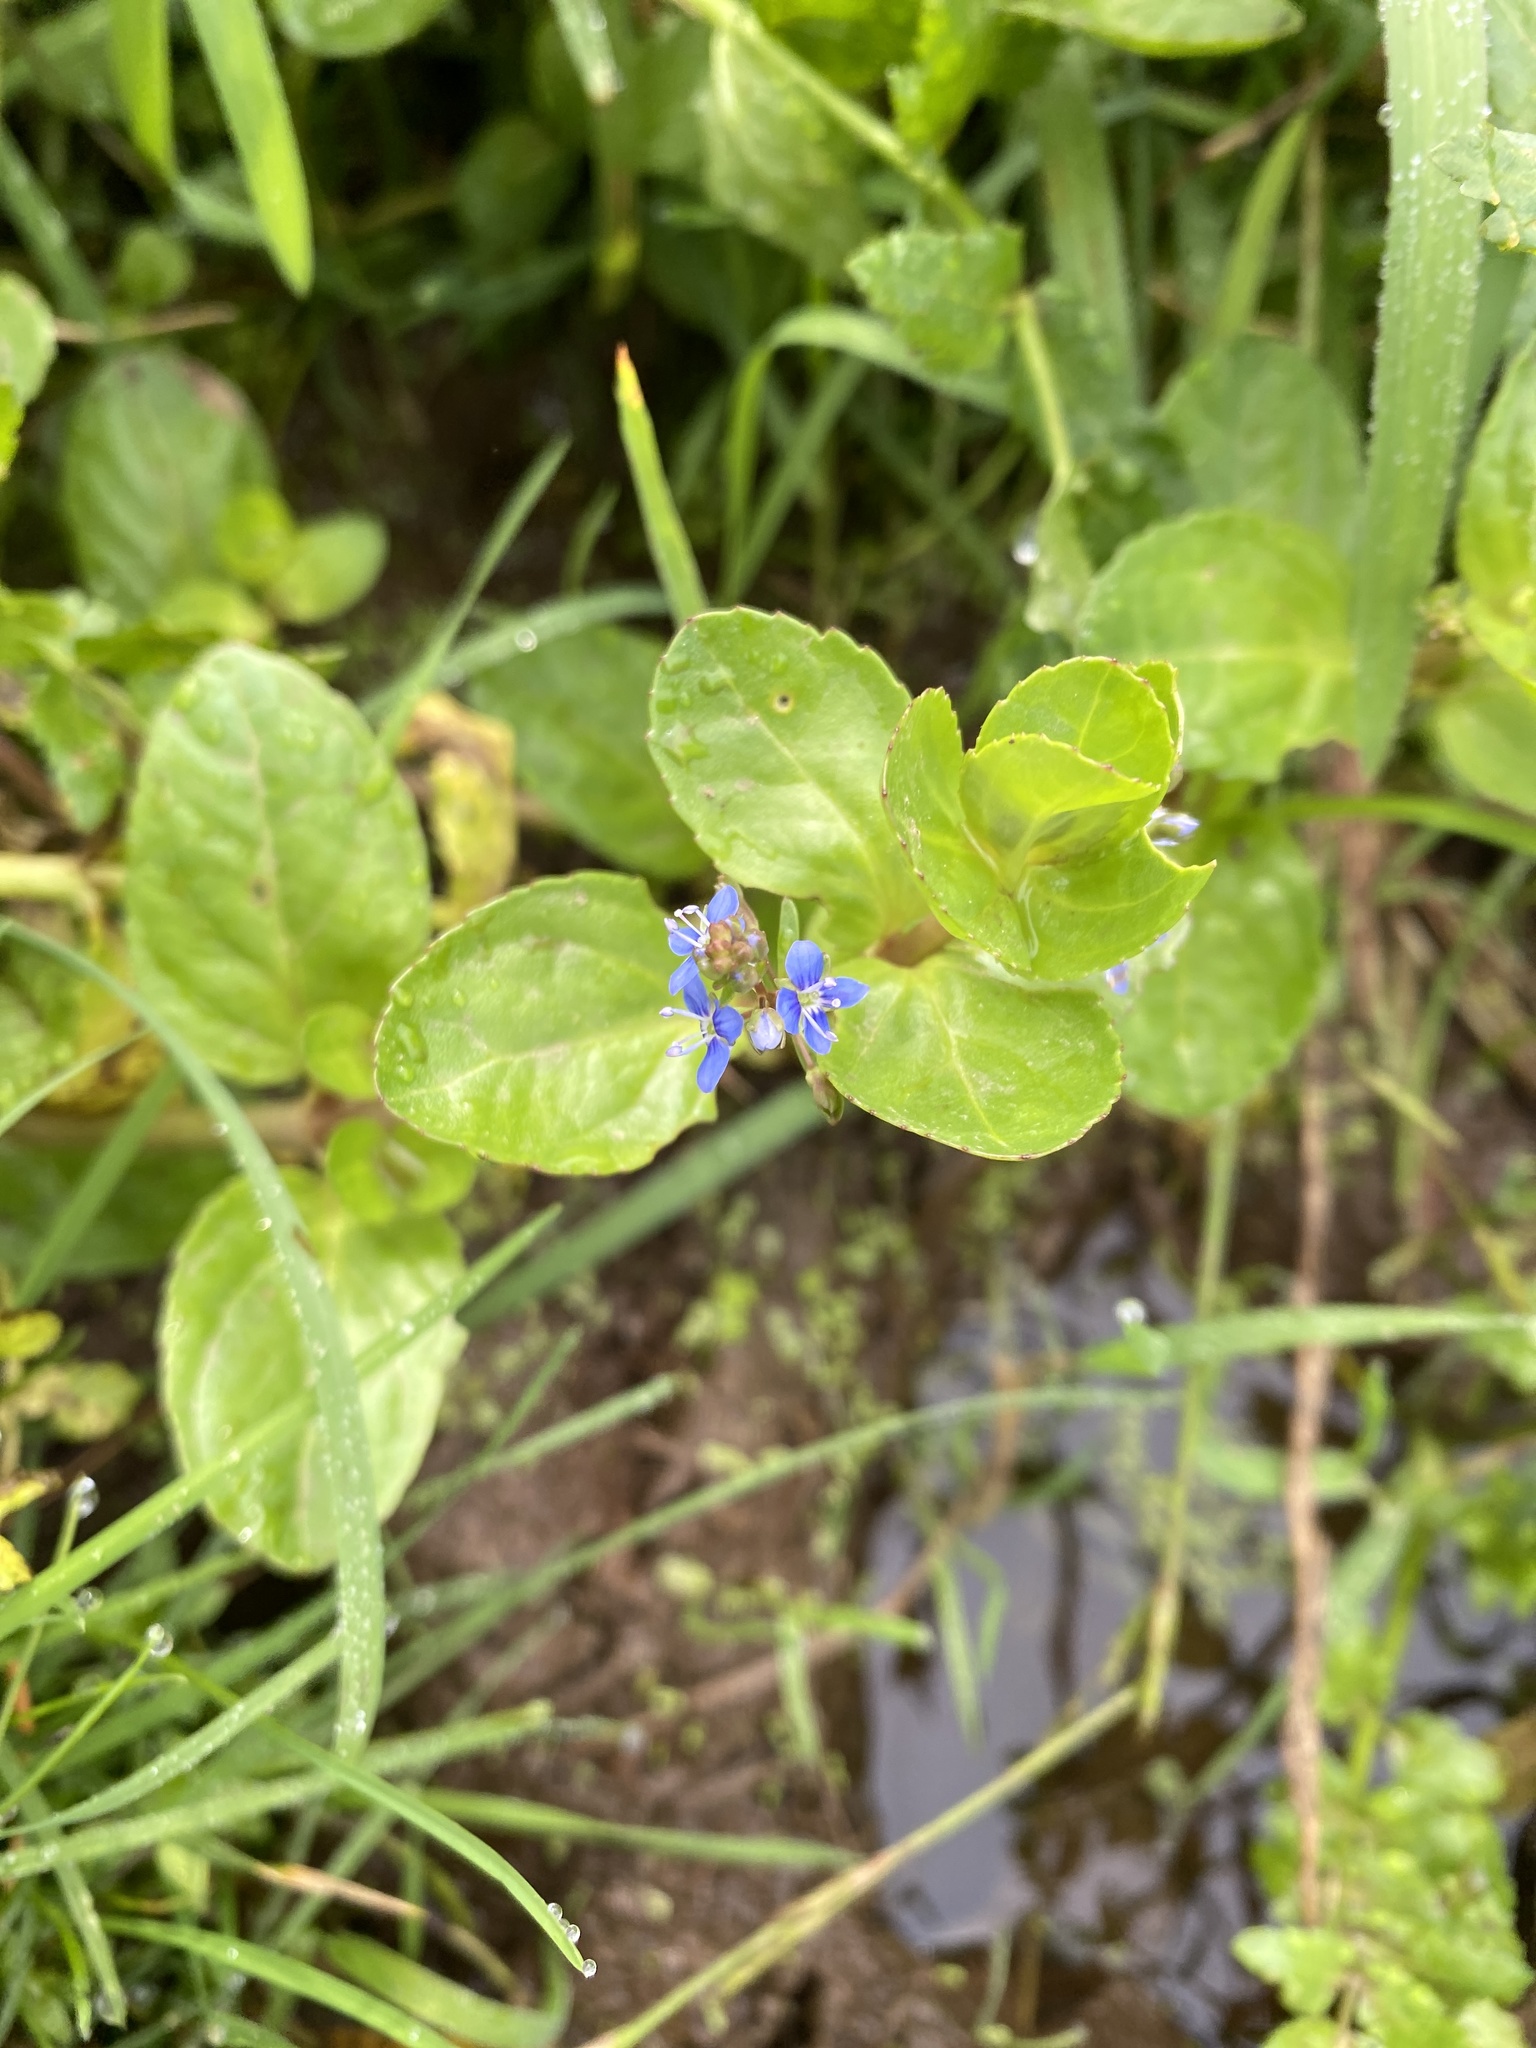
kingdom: Plantae
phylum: Tracheophyta
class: Magnoliopsida
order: Lamiales
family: Plantaginaceae
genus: Veronica
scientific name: Veronica beccabunga
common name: Brooklime
